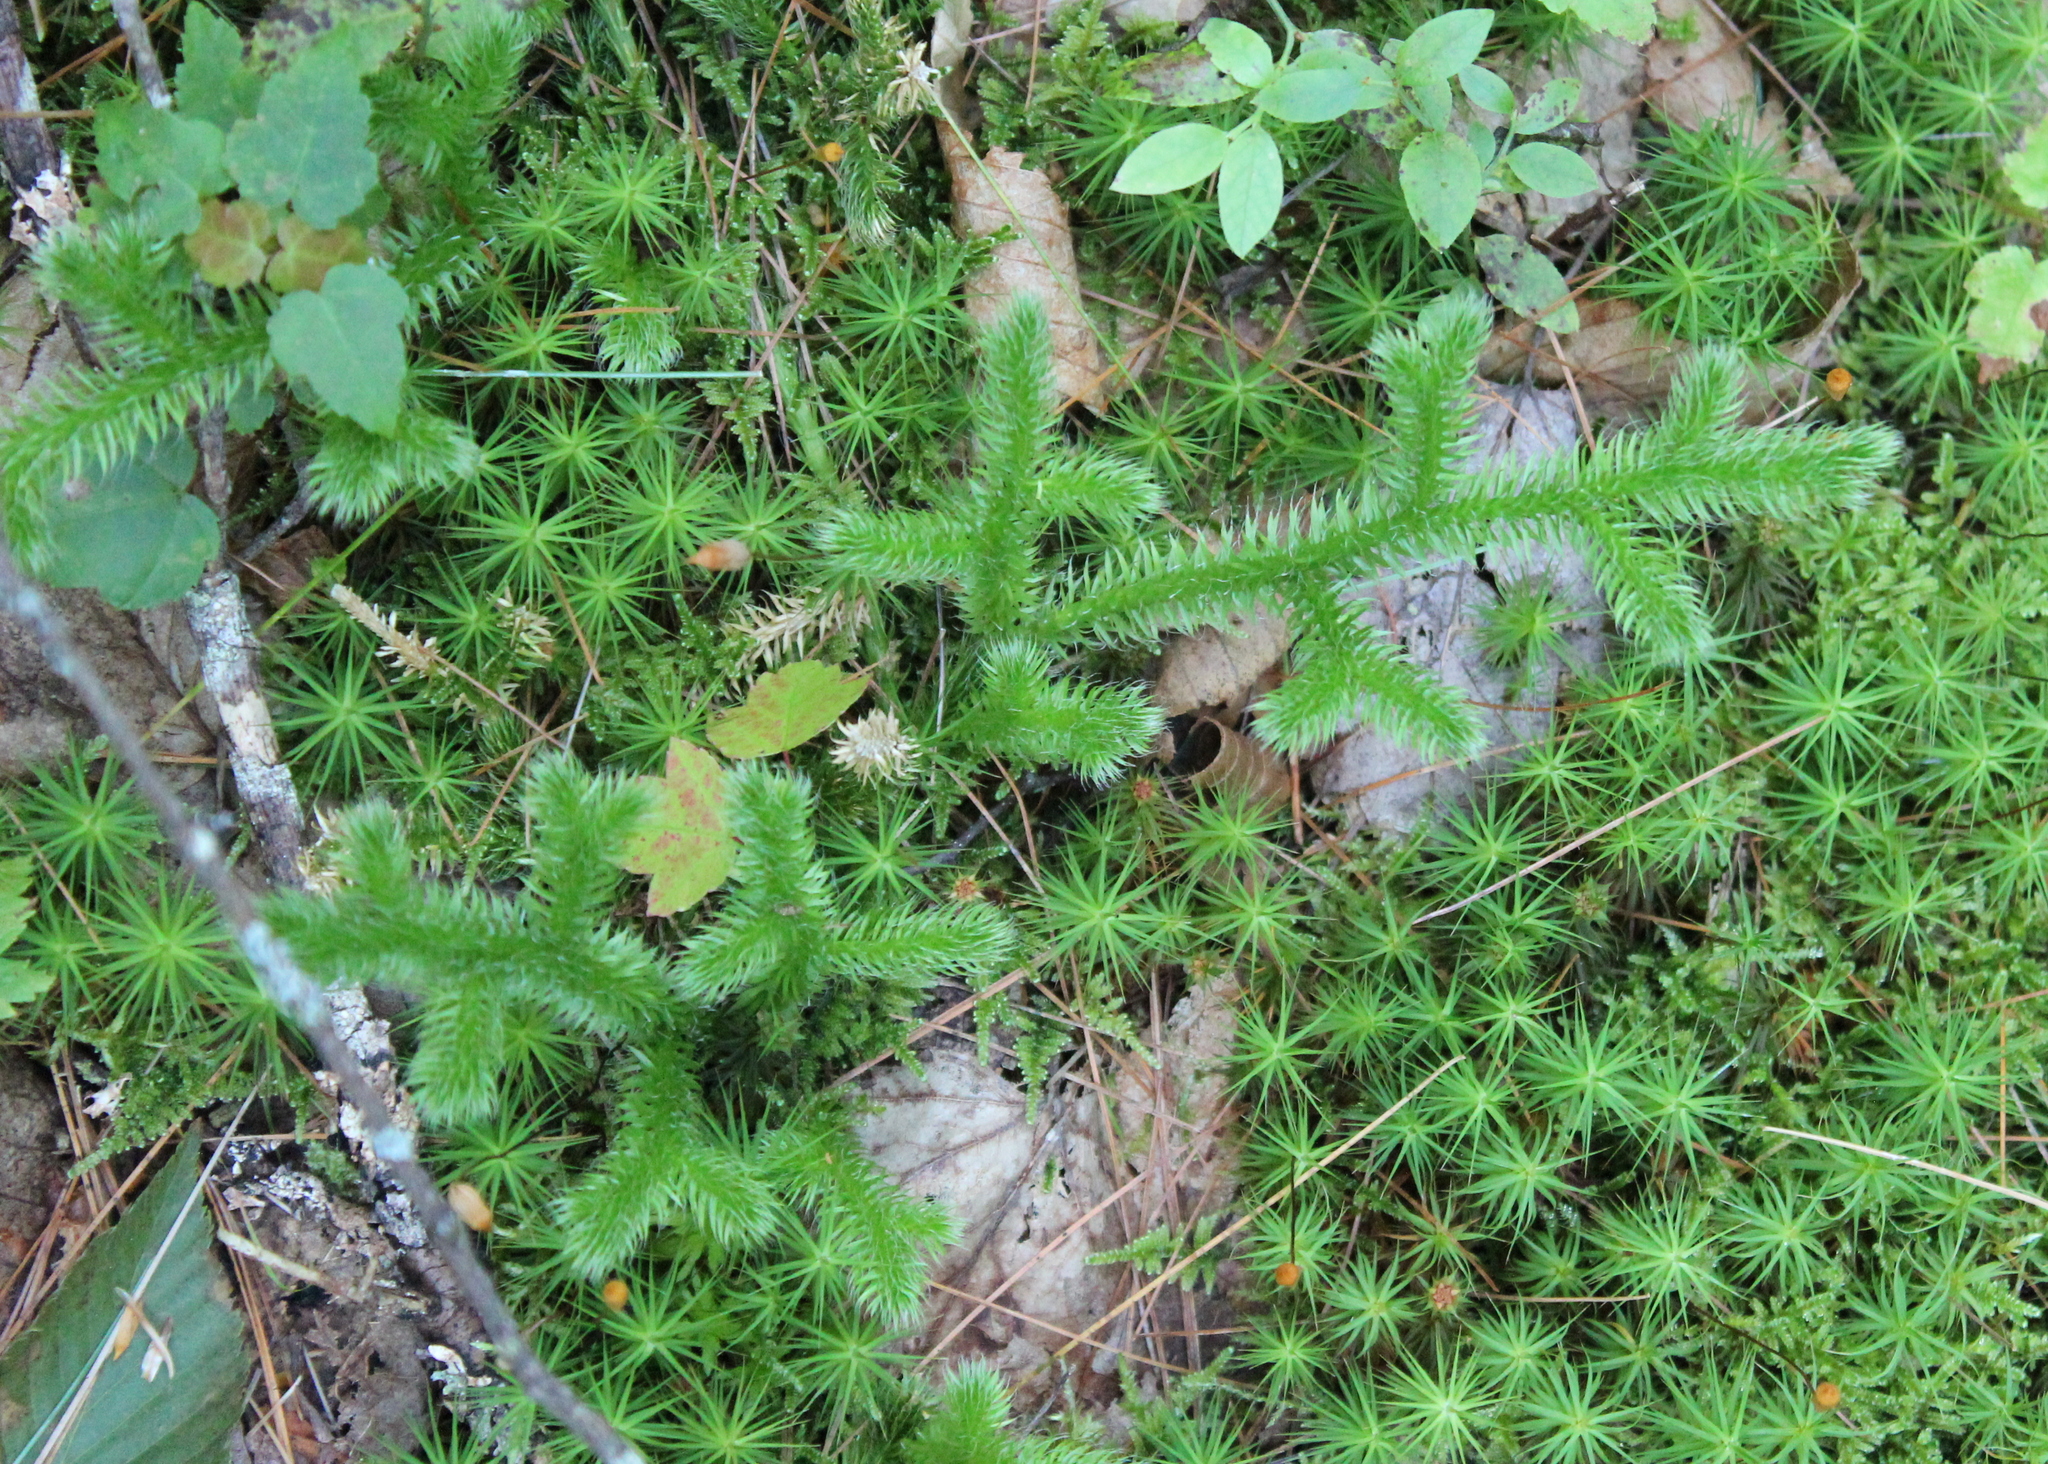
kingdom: Plantae
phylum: Tracheophyta
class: Lycopodiopsida
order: Lycopodiales
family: Lycopodiaceae
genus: Lycopodium
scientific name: Lycopodium clavatum
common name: Stag's-horn clubmoss
